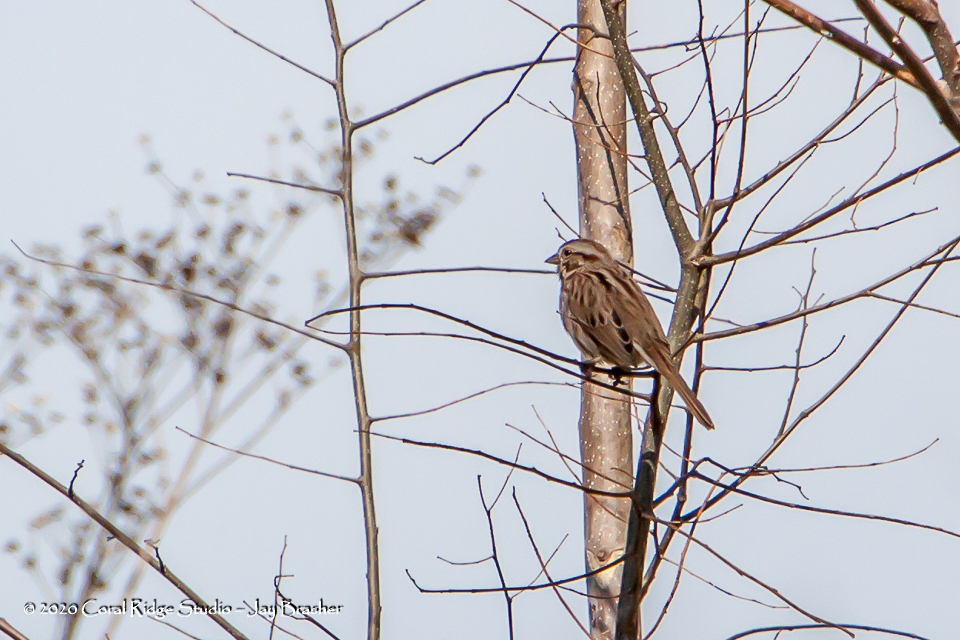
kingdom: Animalia
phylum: Chordata
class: Aves
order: Passeriformes
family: Passerellidae
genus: Melospiza
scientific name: Melospiza melodia
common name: Song sparrow
